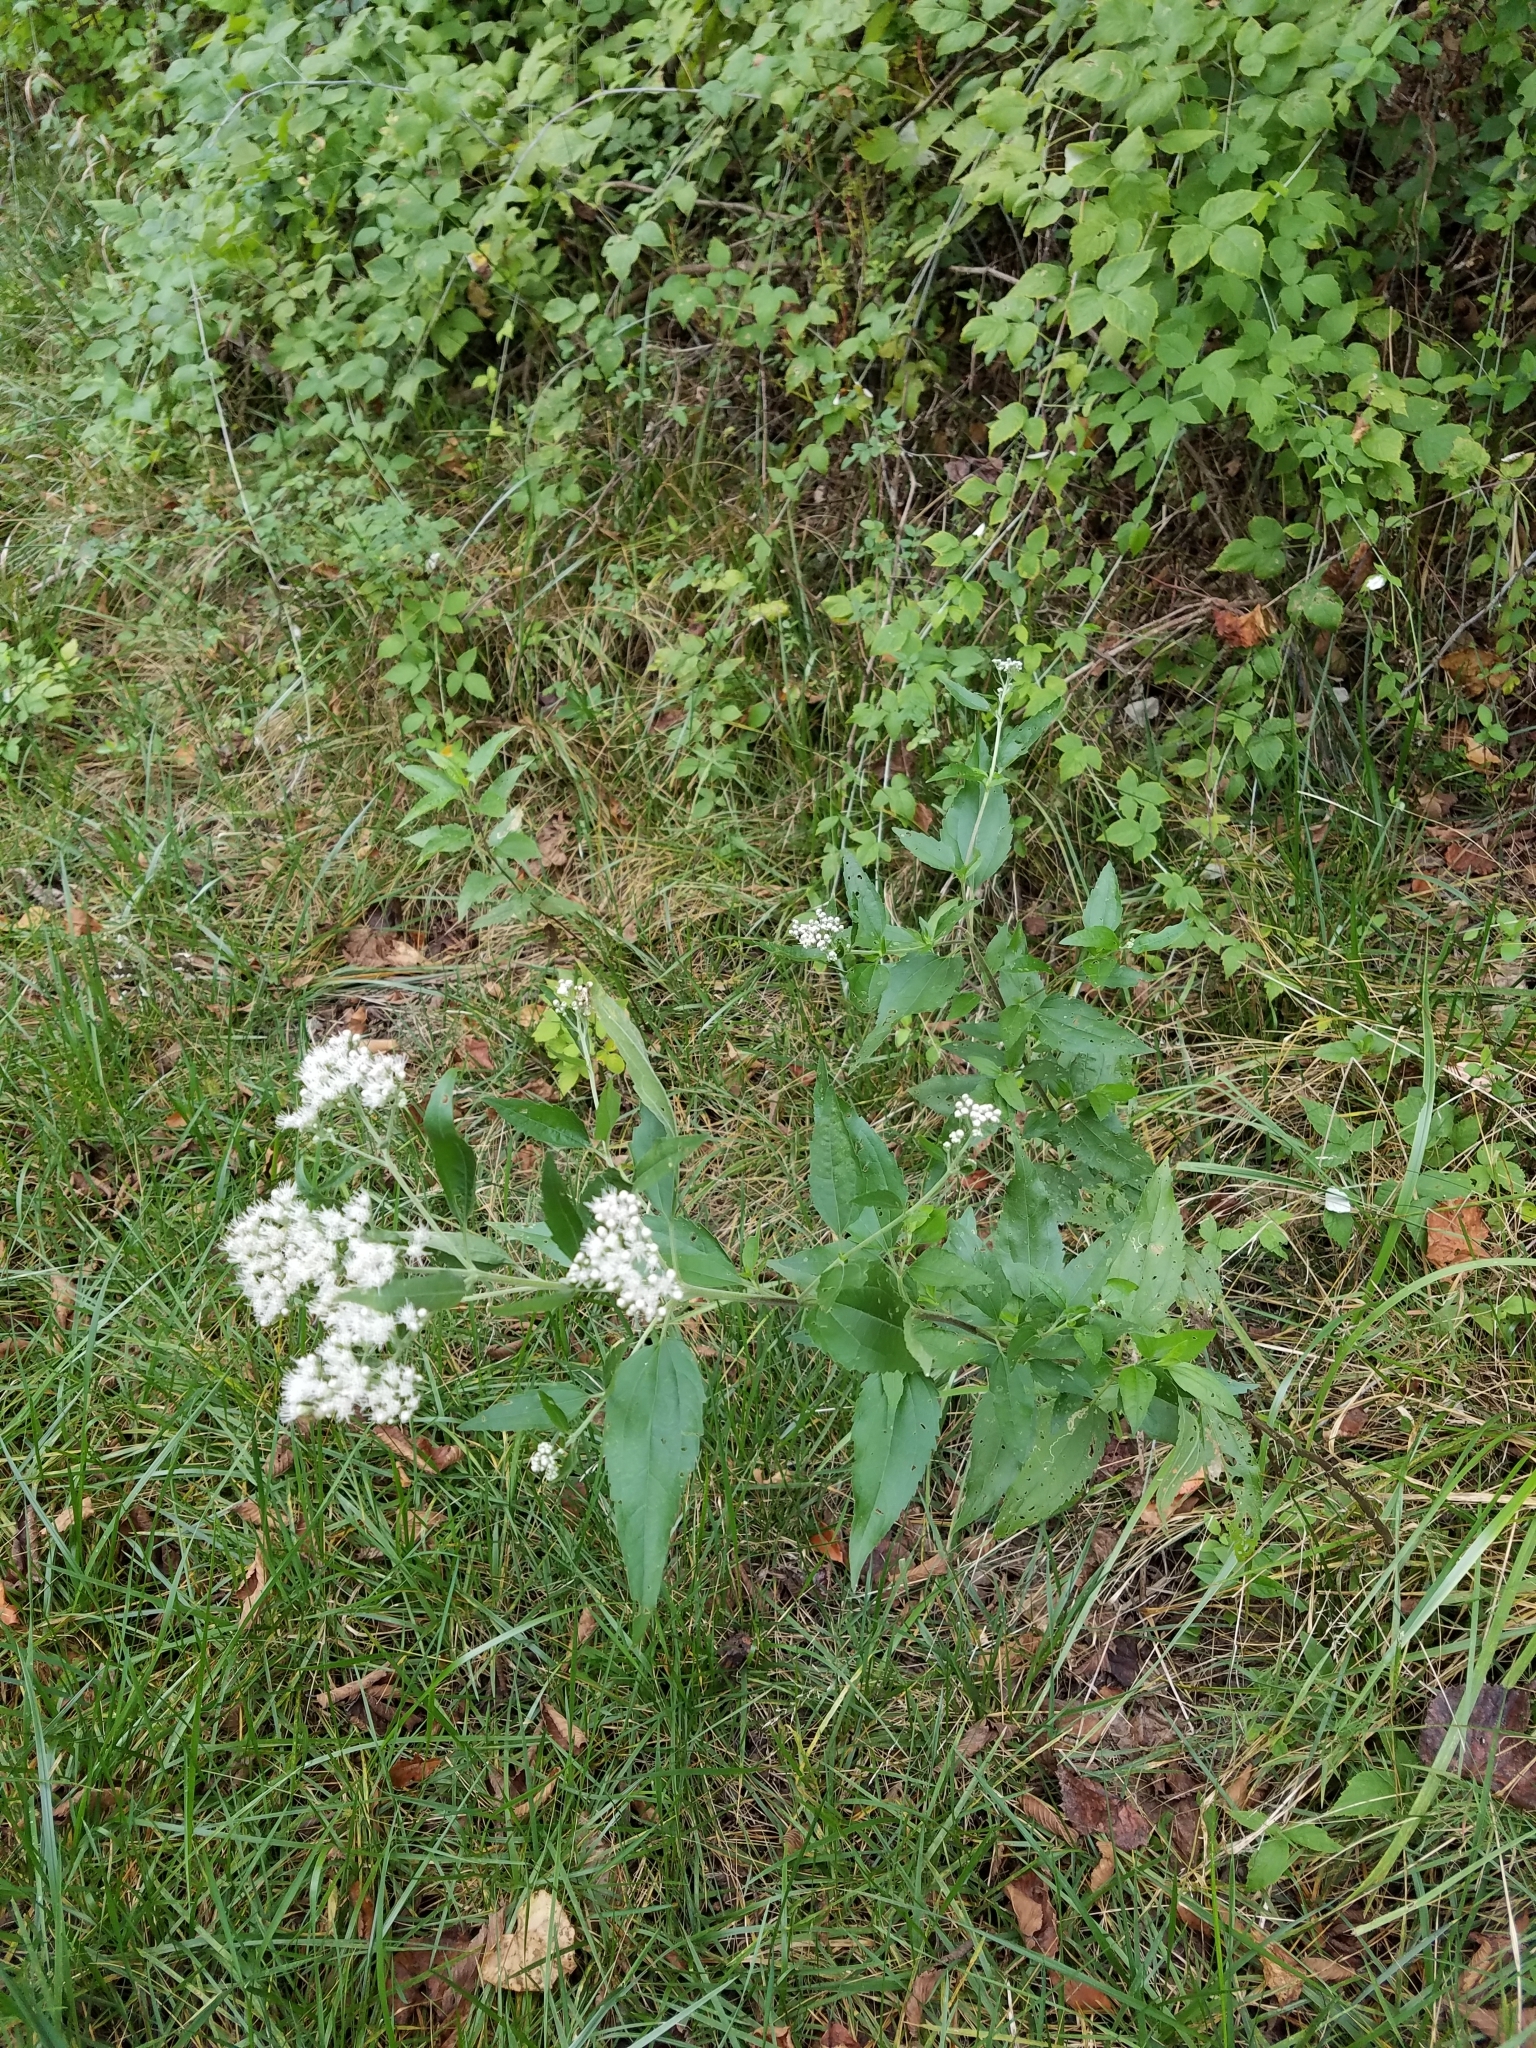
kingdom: Plantae
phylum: Tracheophyta
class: Magnoliopsida
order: Asterales
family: Asteraceae
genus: Eupatorium
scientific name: Eupatorium serotinum
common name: Late boneset
